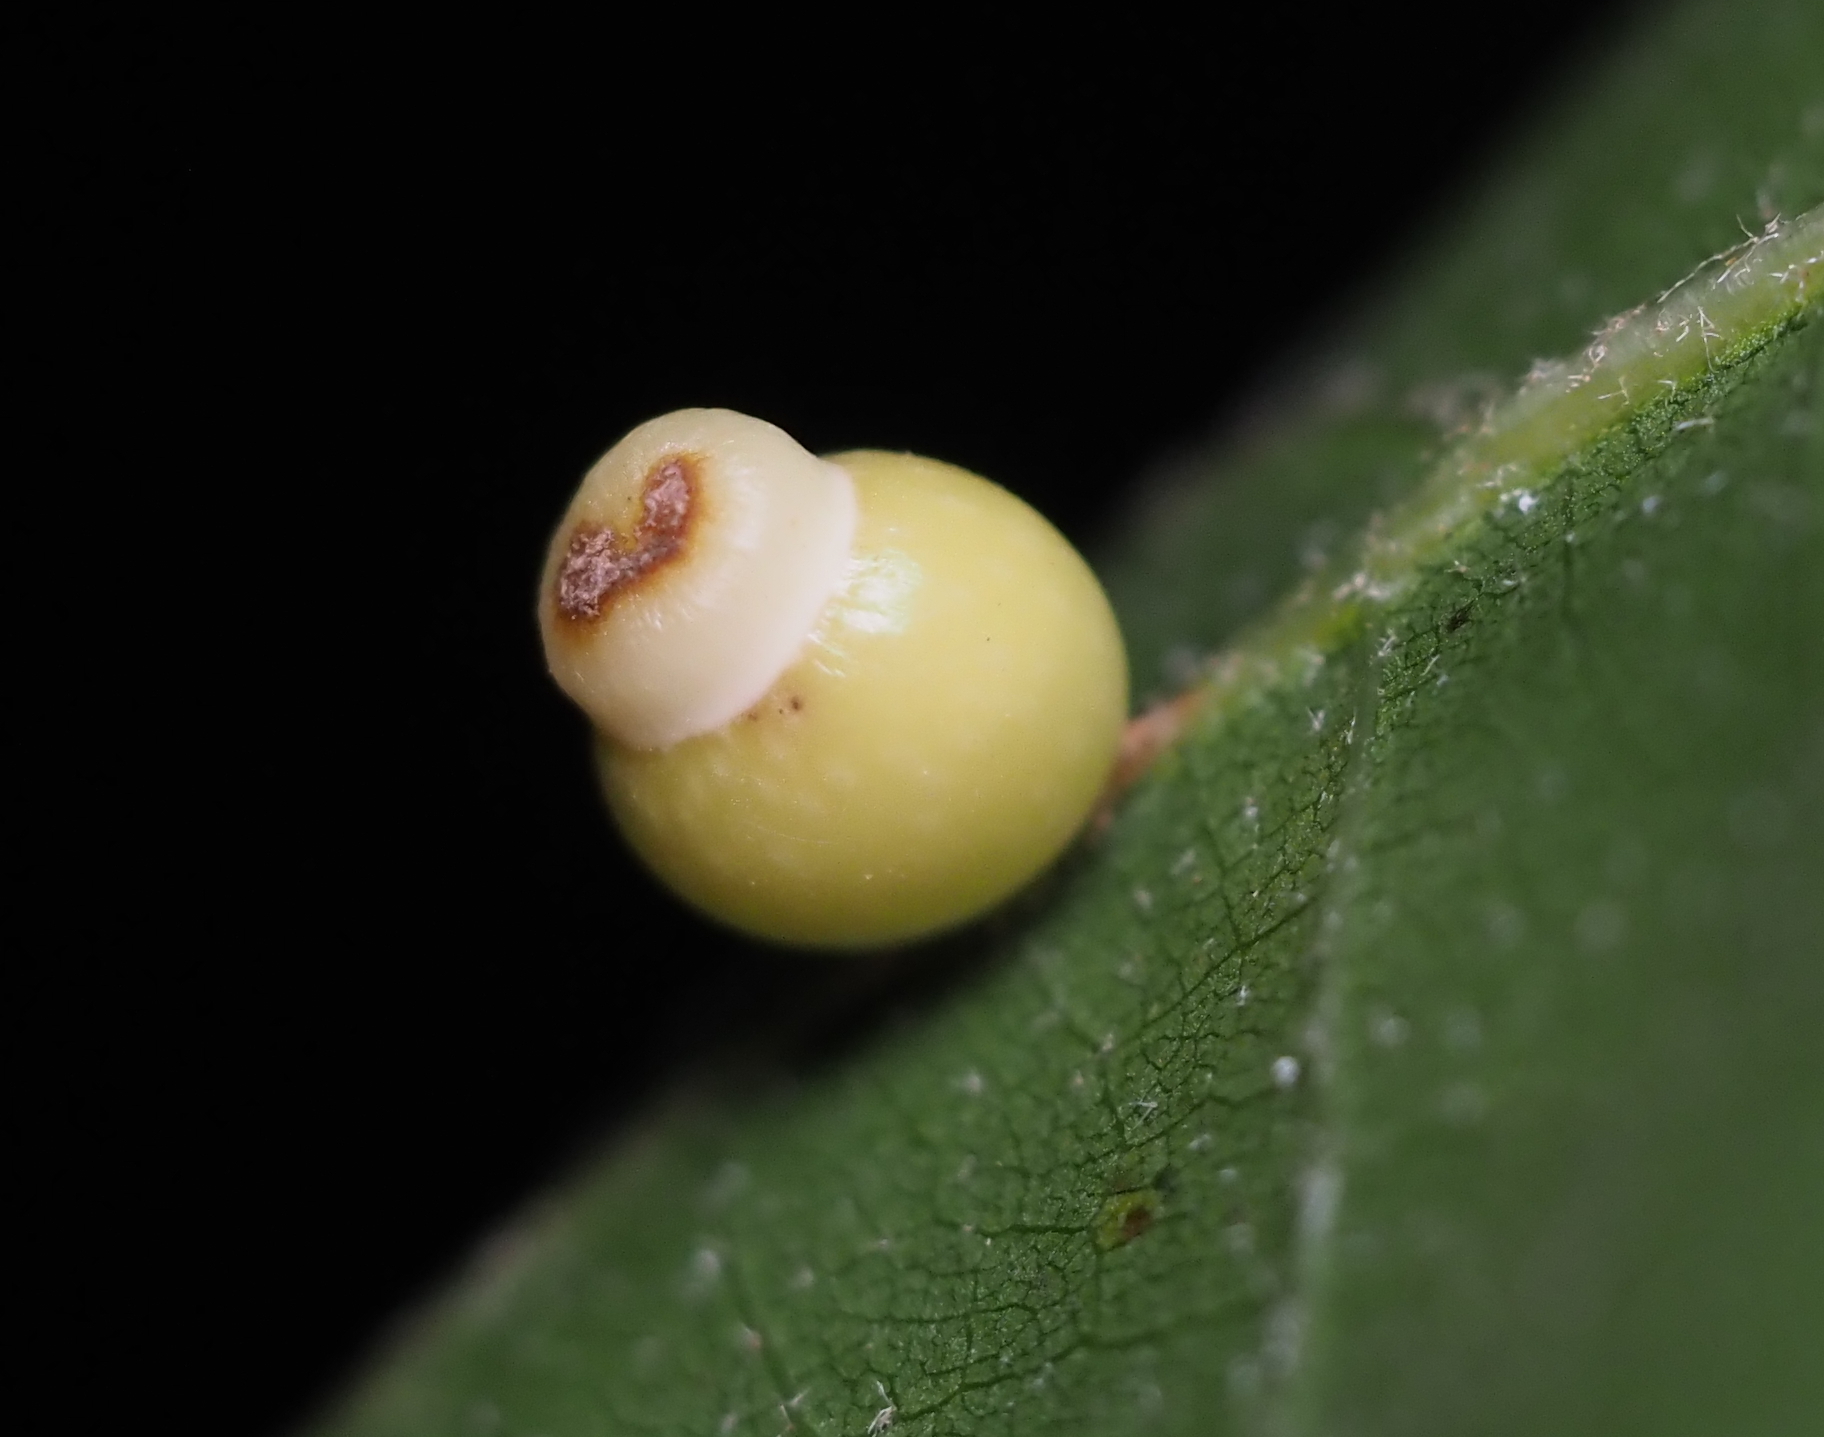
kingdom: Animalia
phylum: Arthropoda
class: Insecta
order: Hymenoptera
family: Cynipidae
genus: Kokkocynips
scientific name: Kokkocynips rileyi
